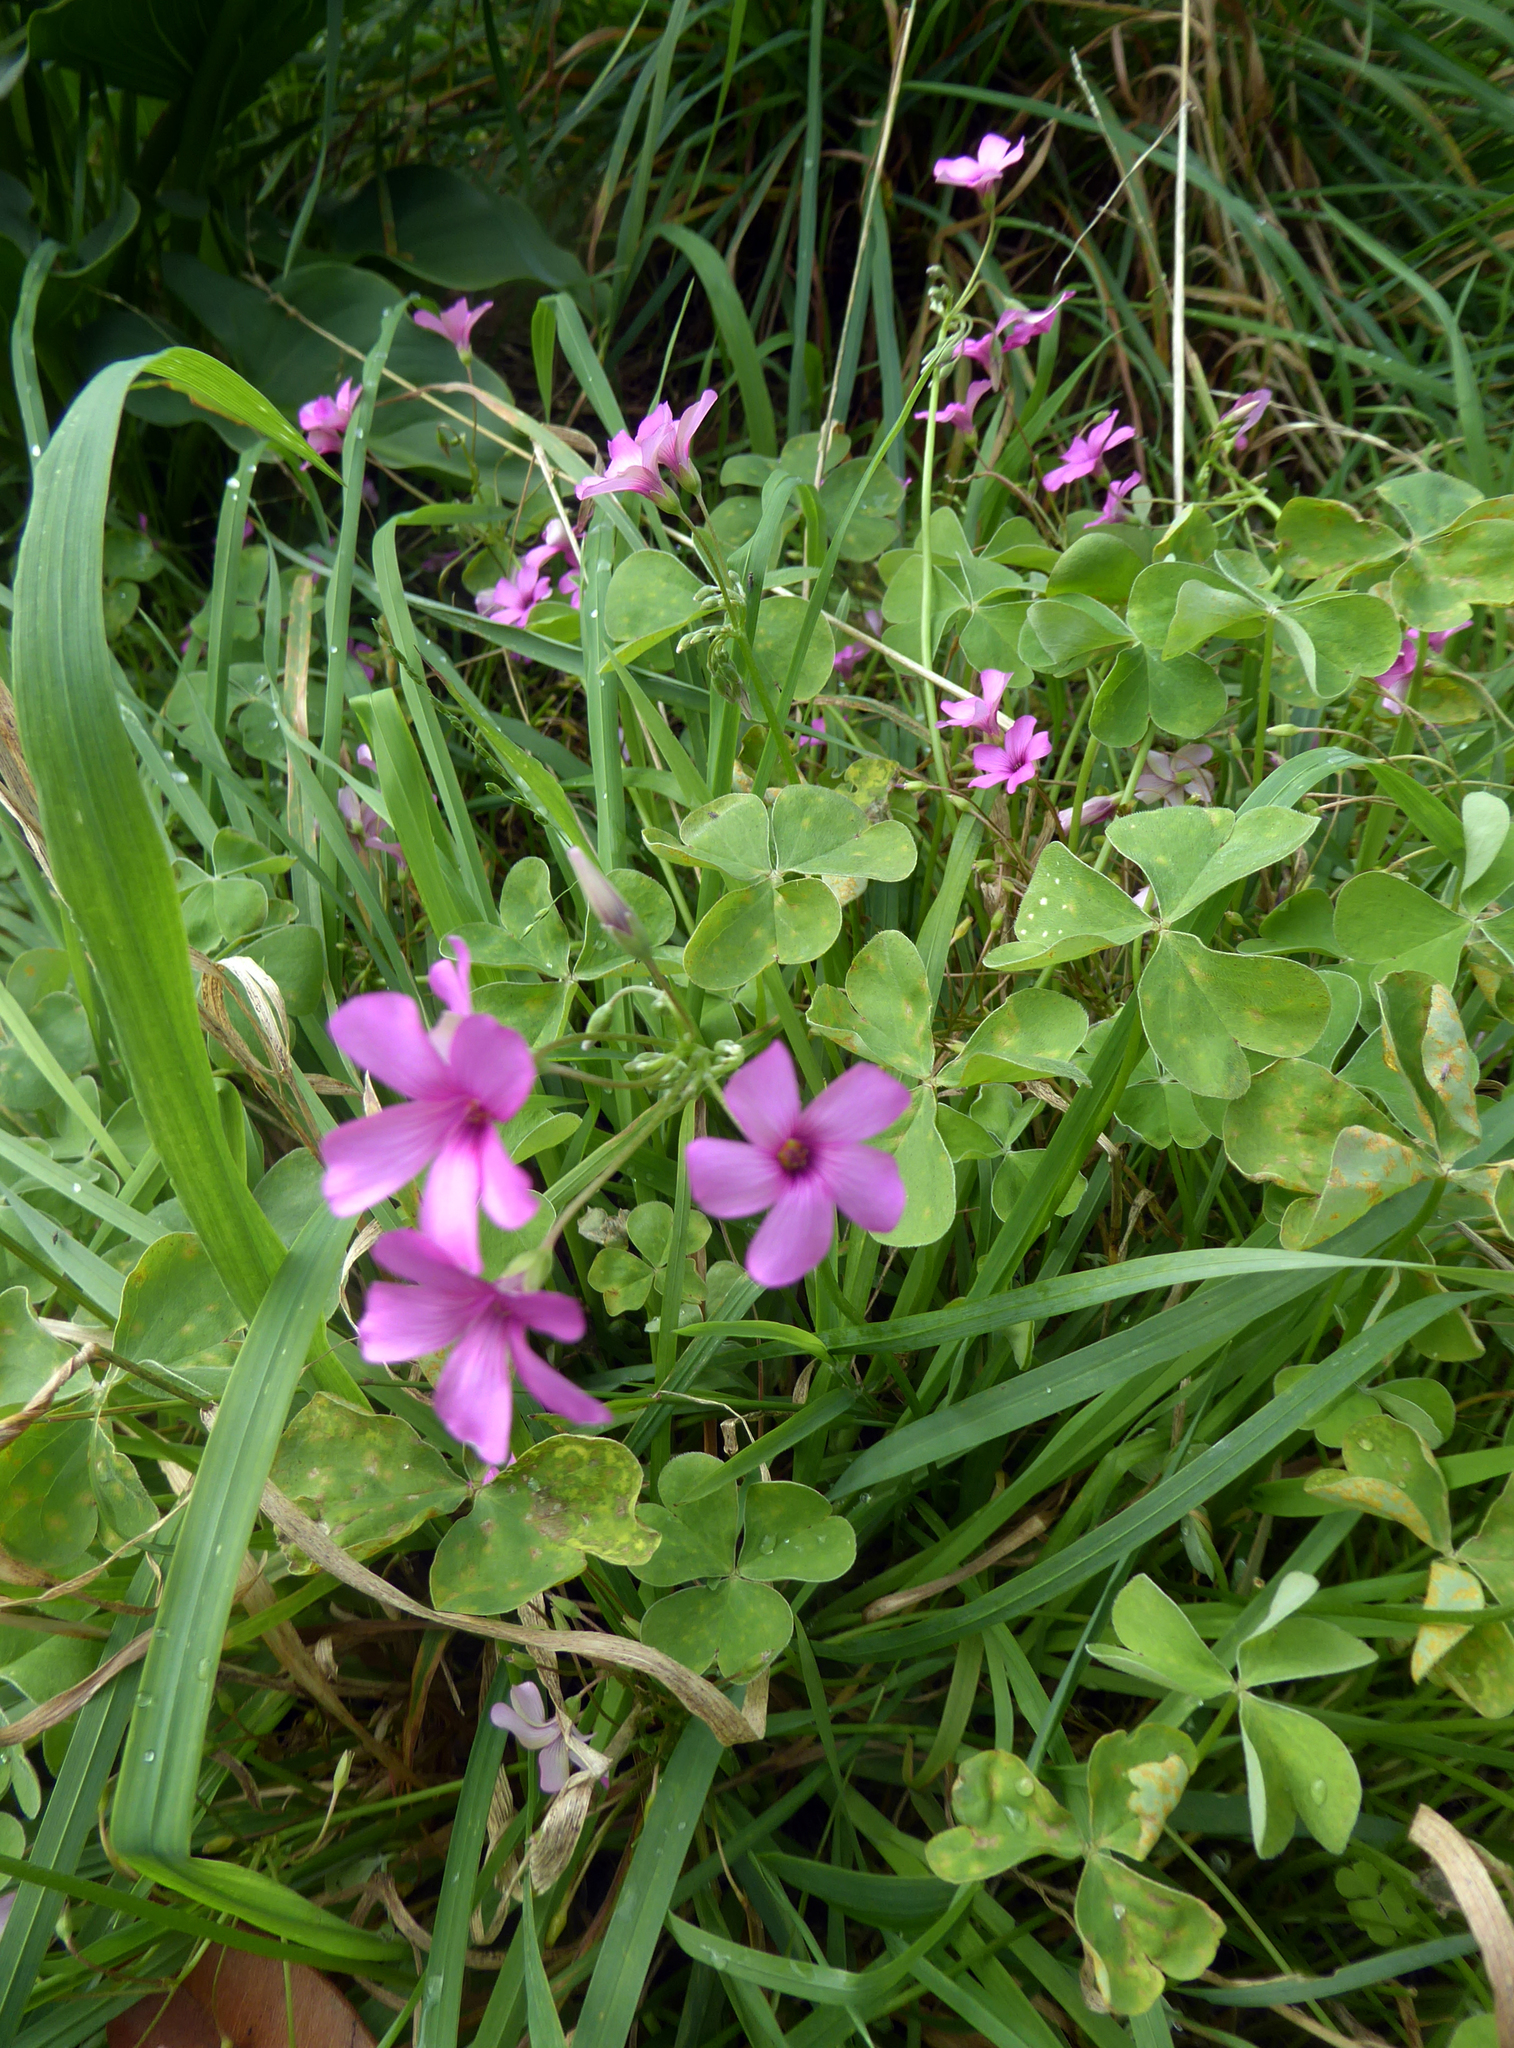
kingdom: Plantae
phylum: Tracheophyta
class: Magnoliopsida
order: Oxalidales
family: Oxalidaceae
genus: Oxalis
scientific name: Oxalis articulata
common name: Pink-sorrel
